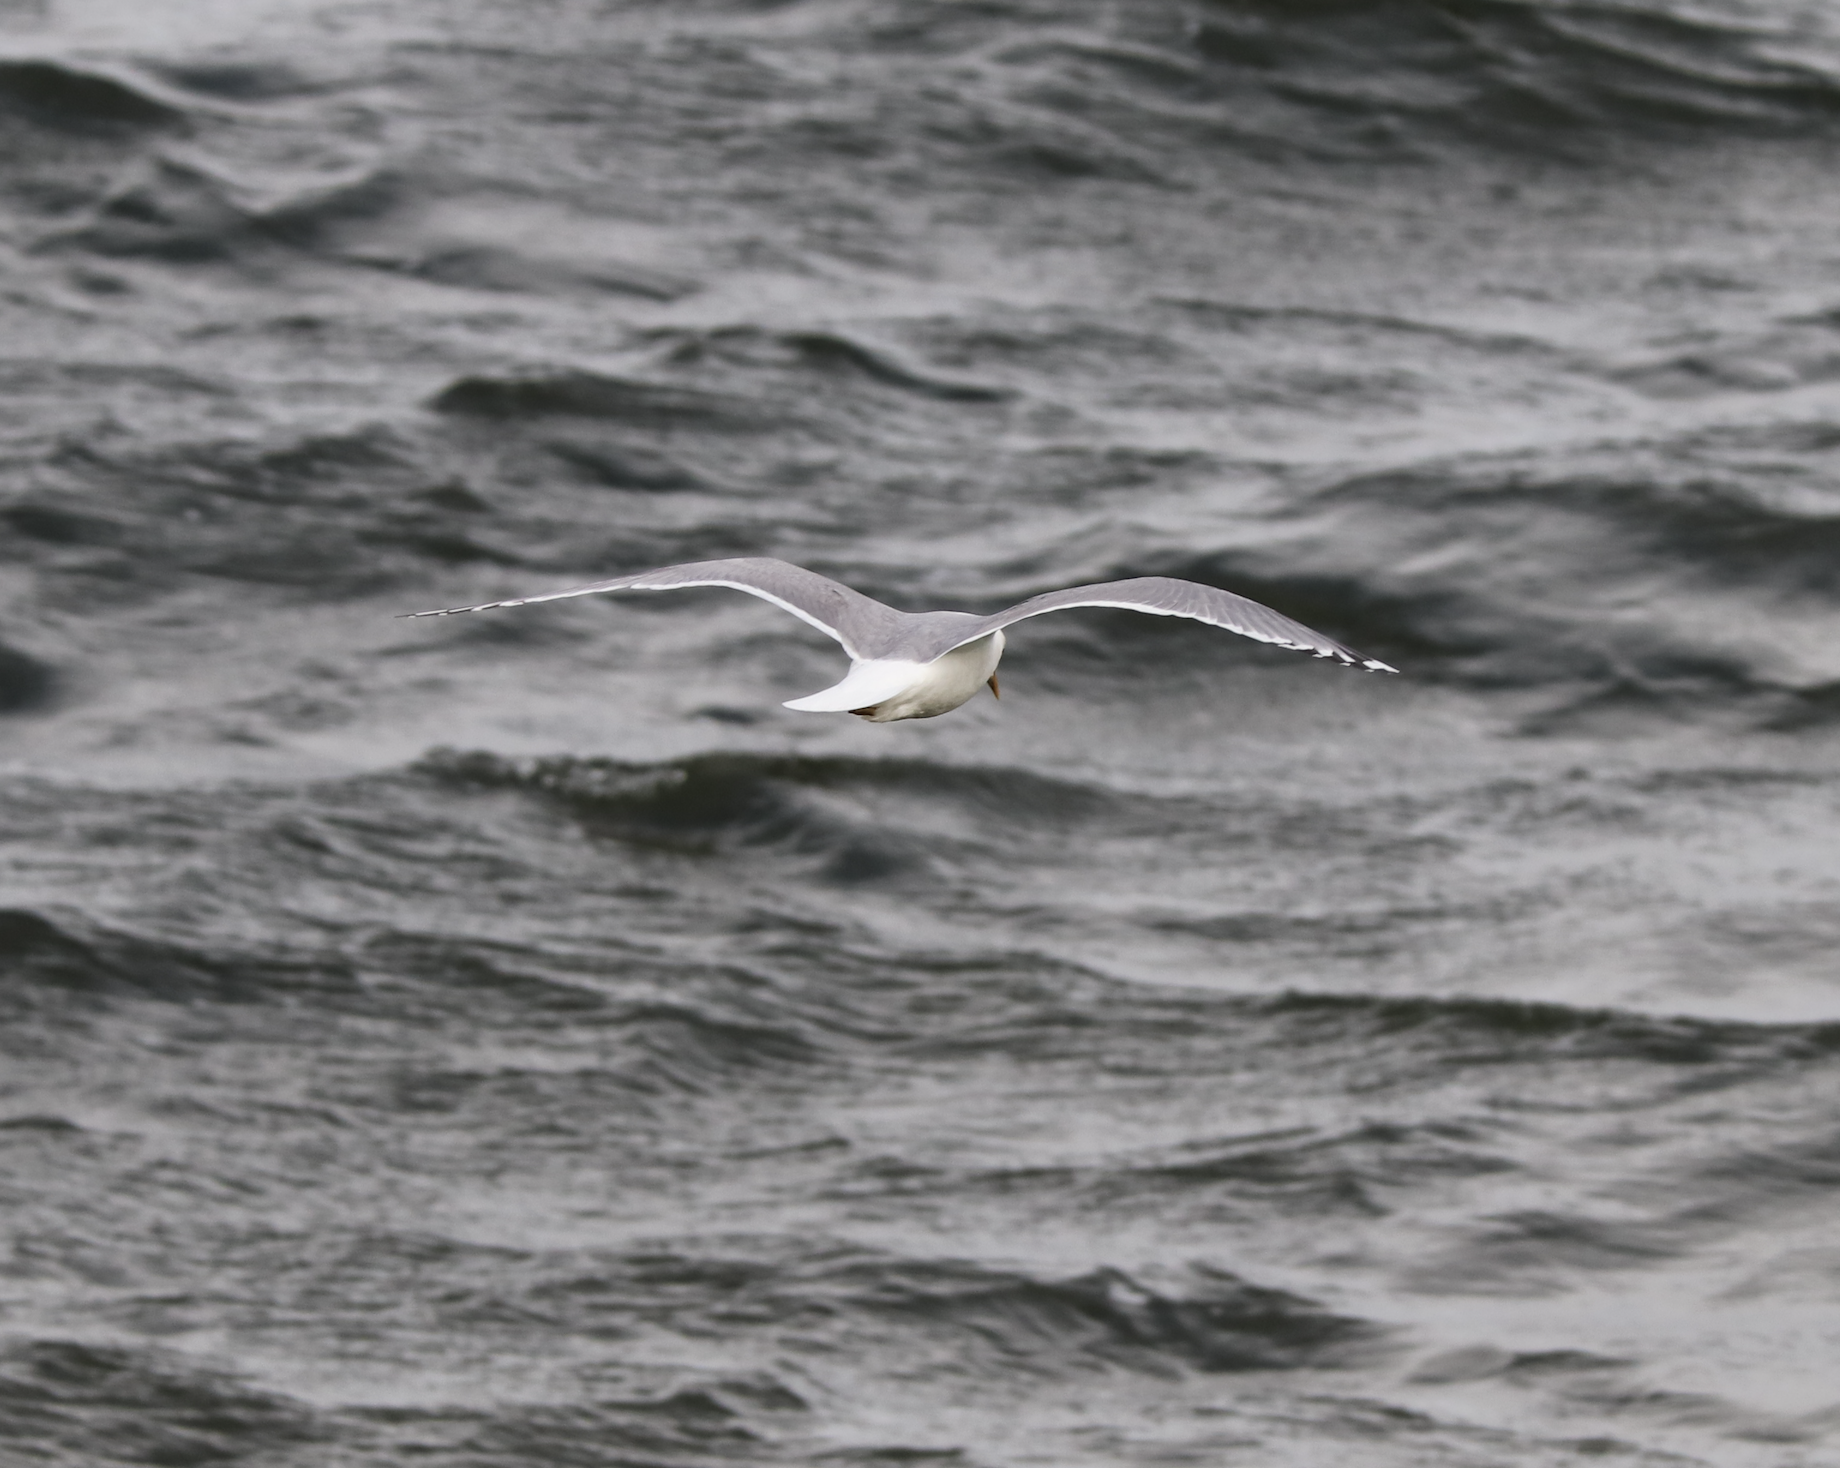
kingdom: Animalia
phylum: Chordata
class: Aves
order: Charadriiformes
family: Laridae
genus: Larus
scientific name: Larus brachyrhynchus
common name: Short-billed gull
